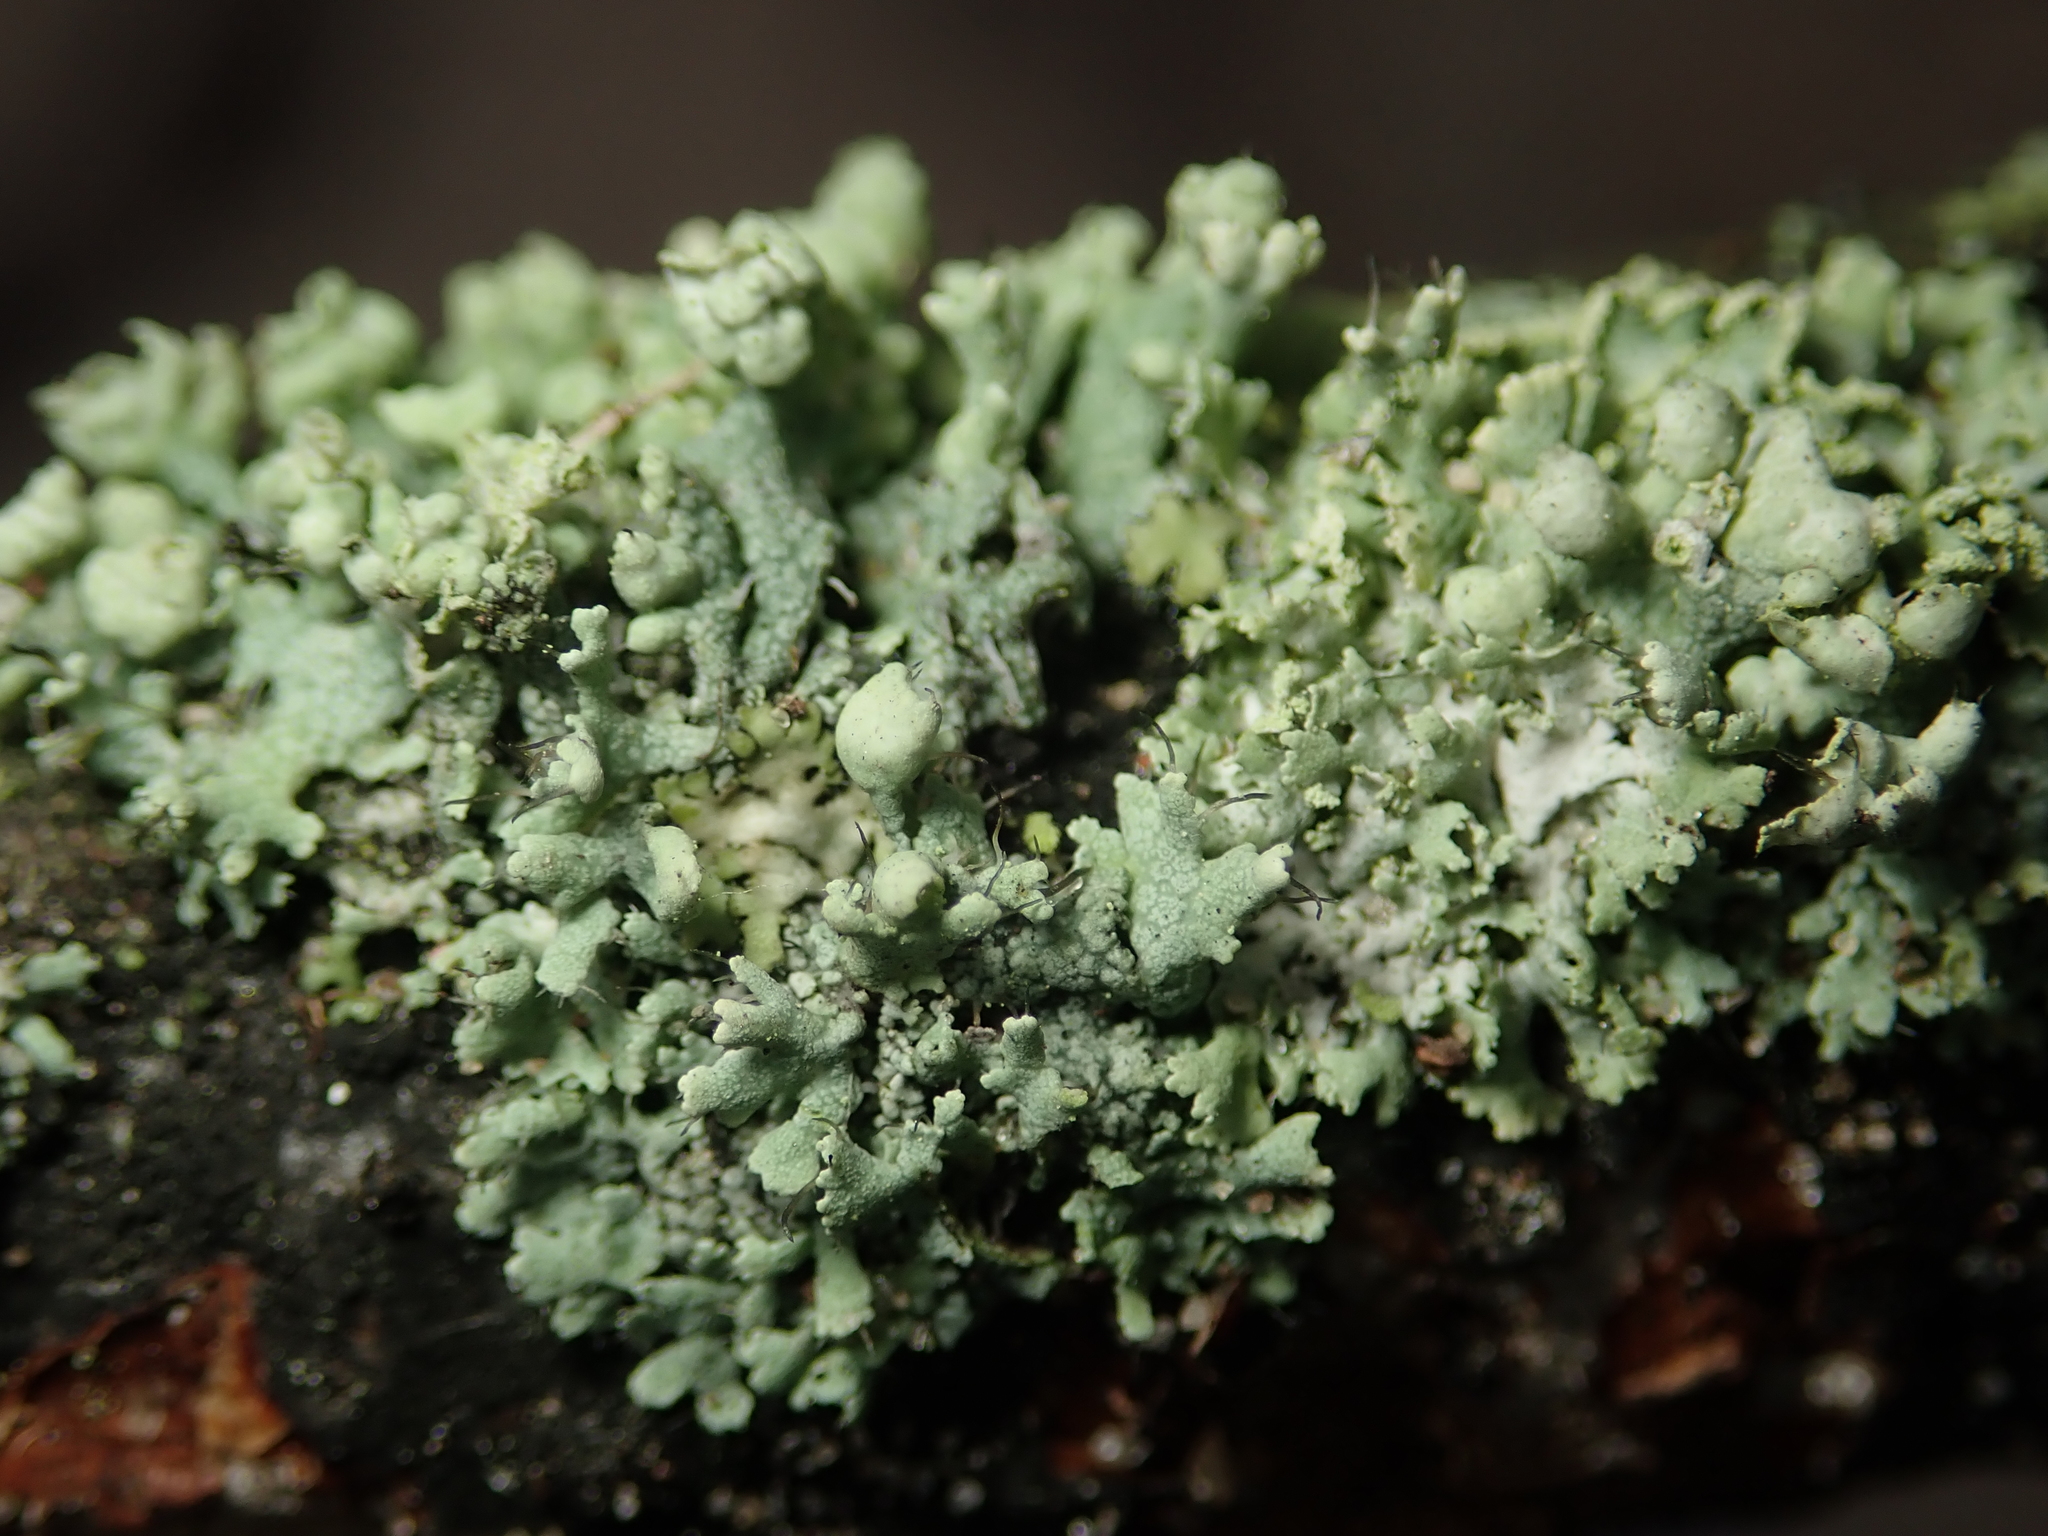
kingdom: Fungi
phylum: Ascomycota
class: Lecanoromycetes
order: Caliciales
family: Physciaceae
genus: Physcia
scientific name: Physcia adscendens
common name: Hooded rosette lichen
